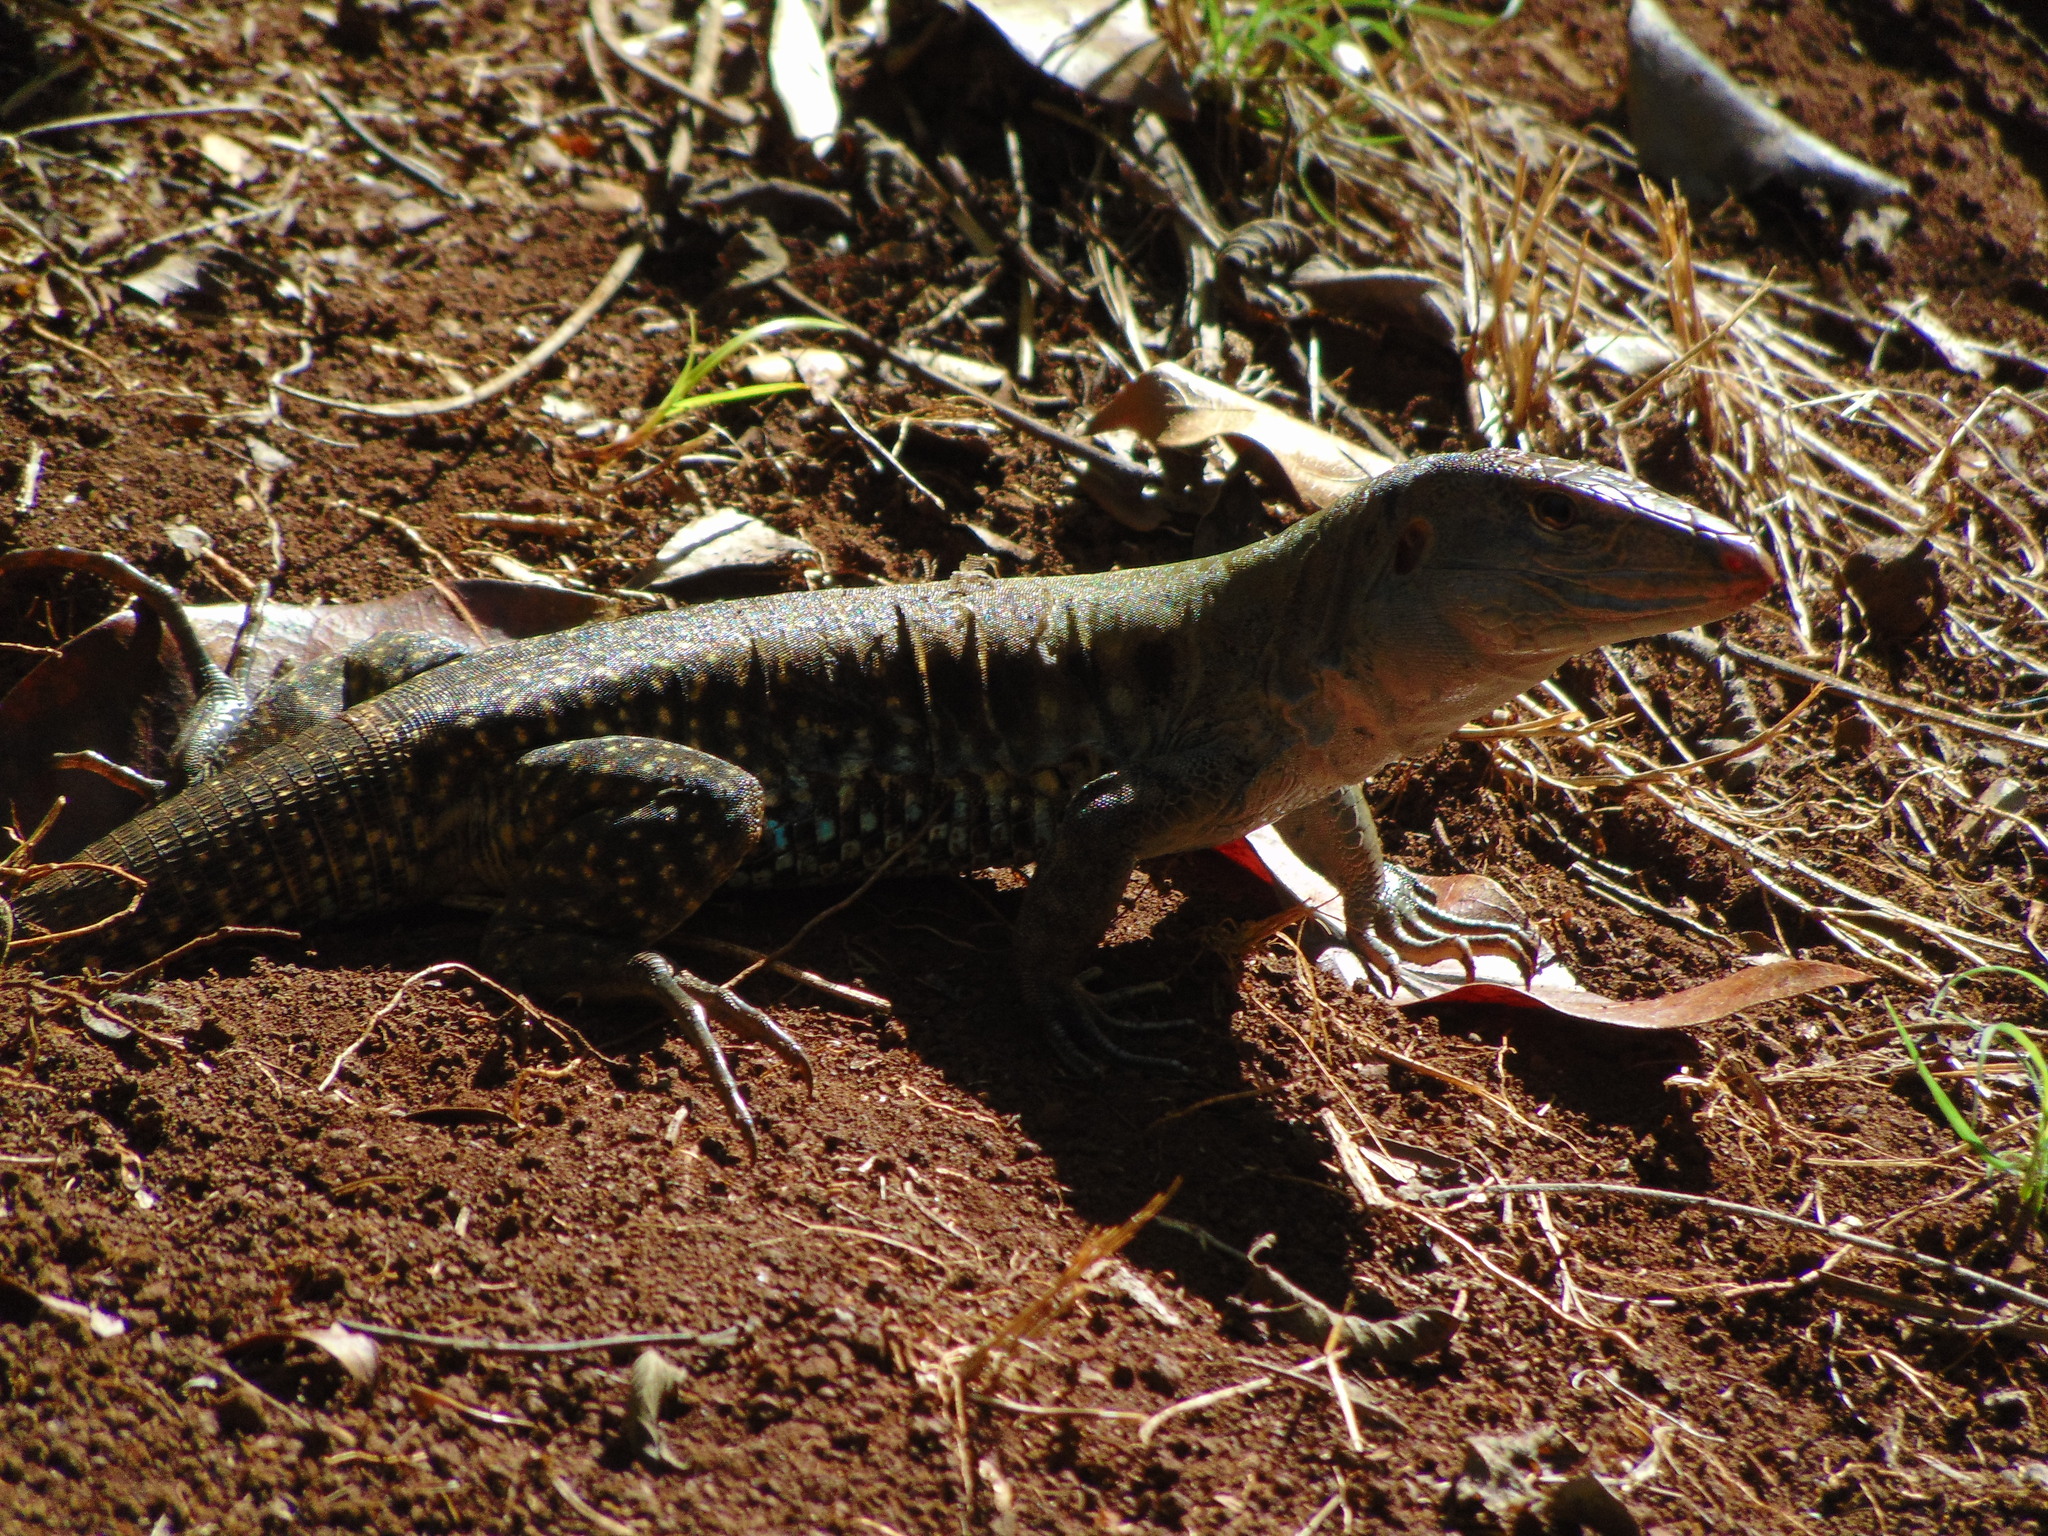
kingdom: Animalia
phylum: Chordata
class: Squamata
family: Teiidae
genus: Pholidoscelis
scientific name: Pholidoscelis exsul
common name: Common puerto rican ameiva
